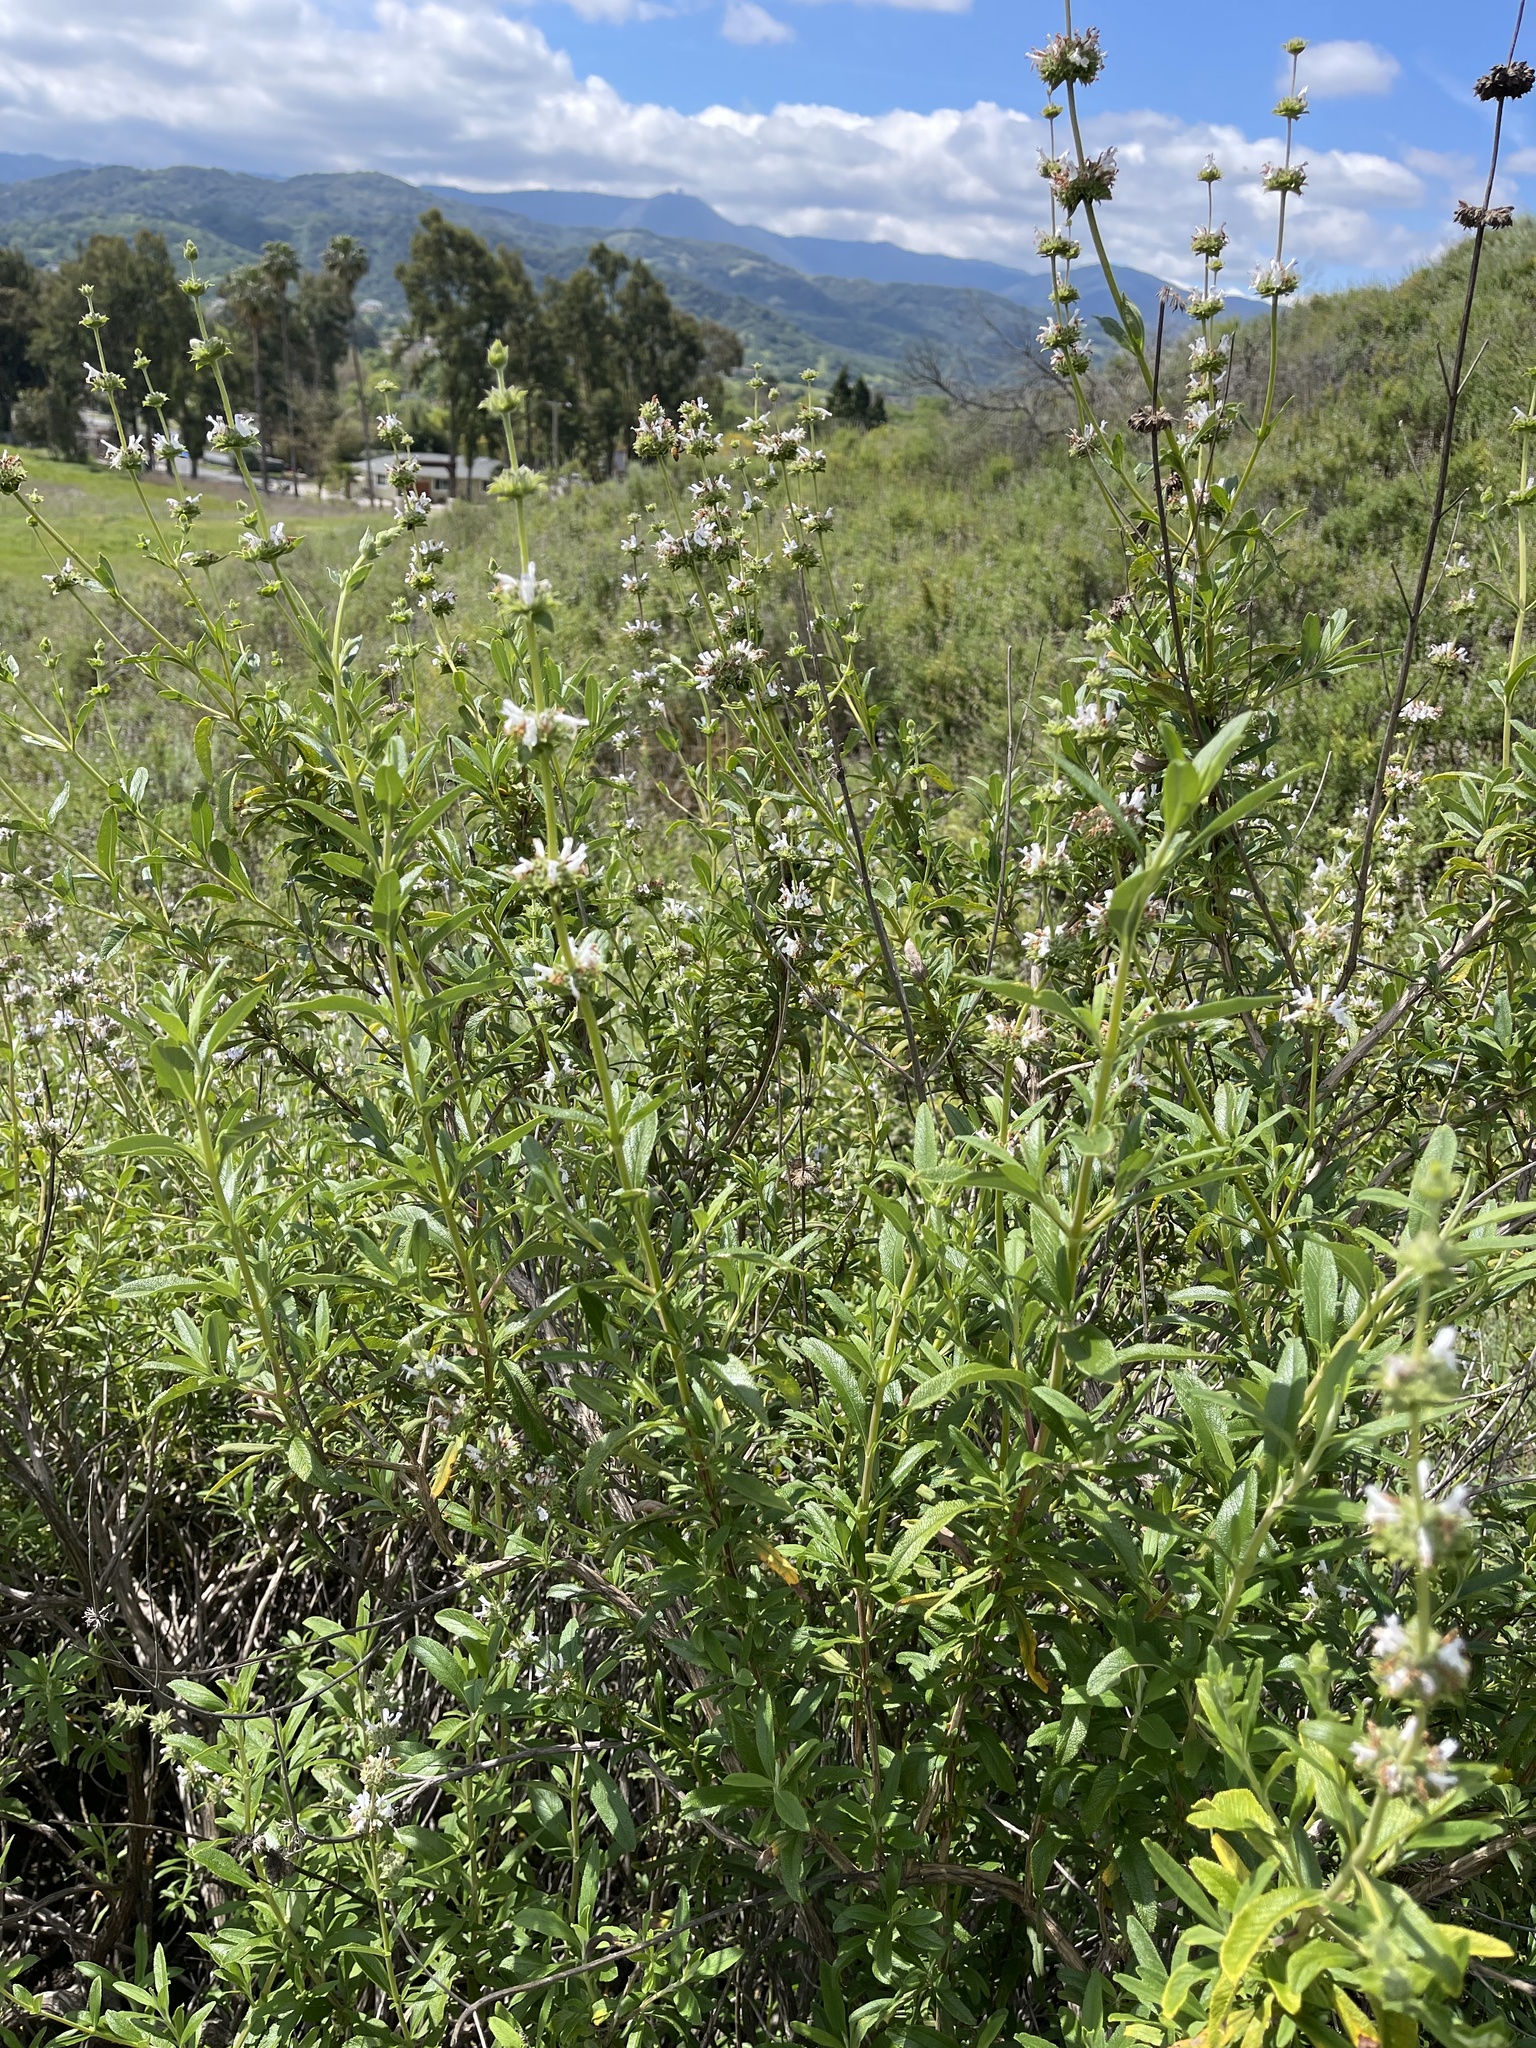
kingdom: Plantae
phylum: Tracheophyta
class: Magnoliopsida
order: Lamiales
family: Lamiaceae
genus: Salvia
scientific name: Salvia mellifera
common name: Black sage
